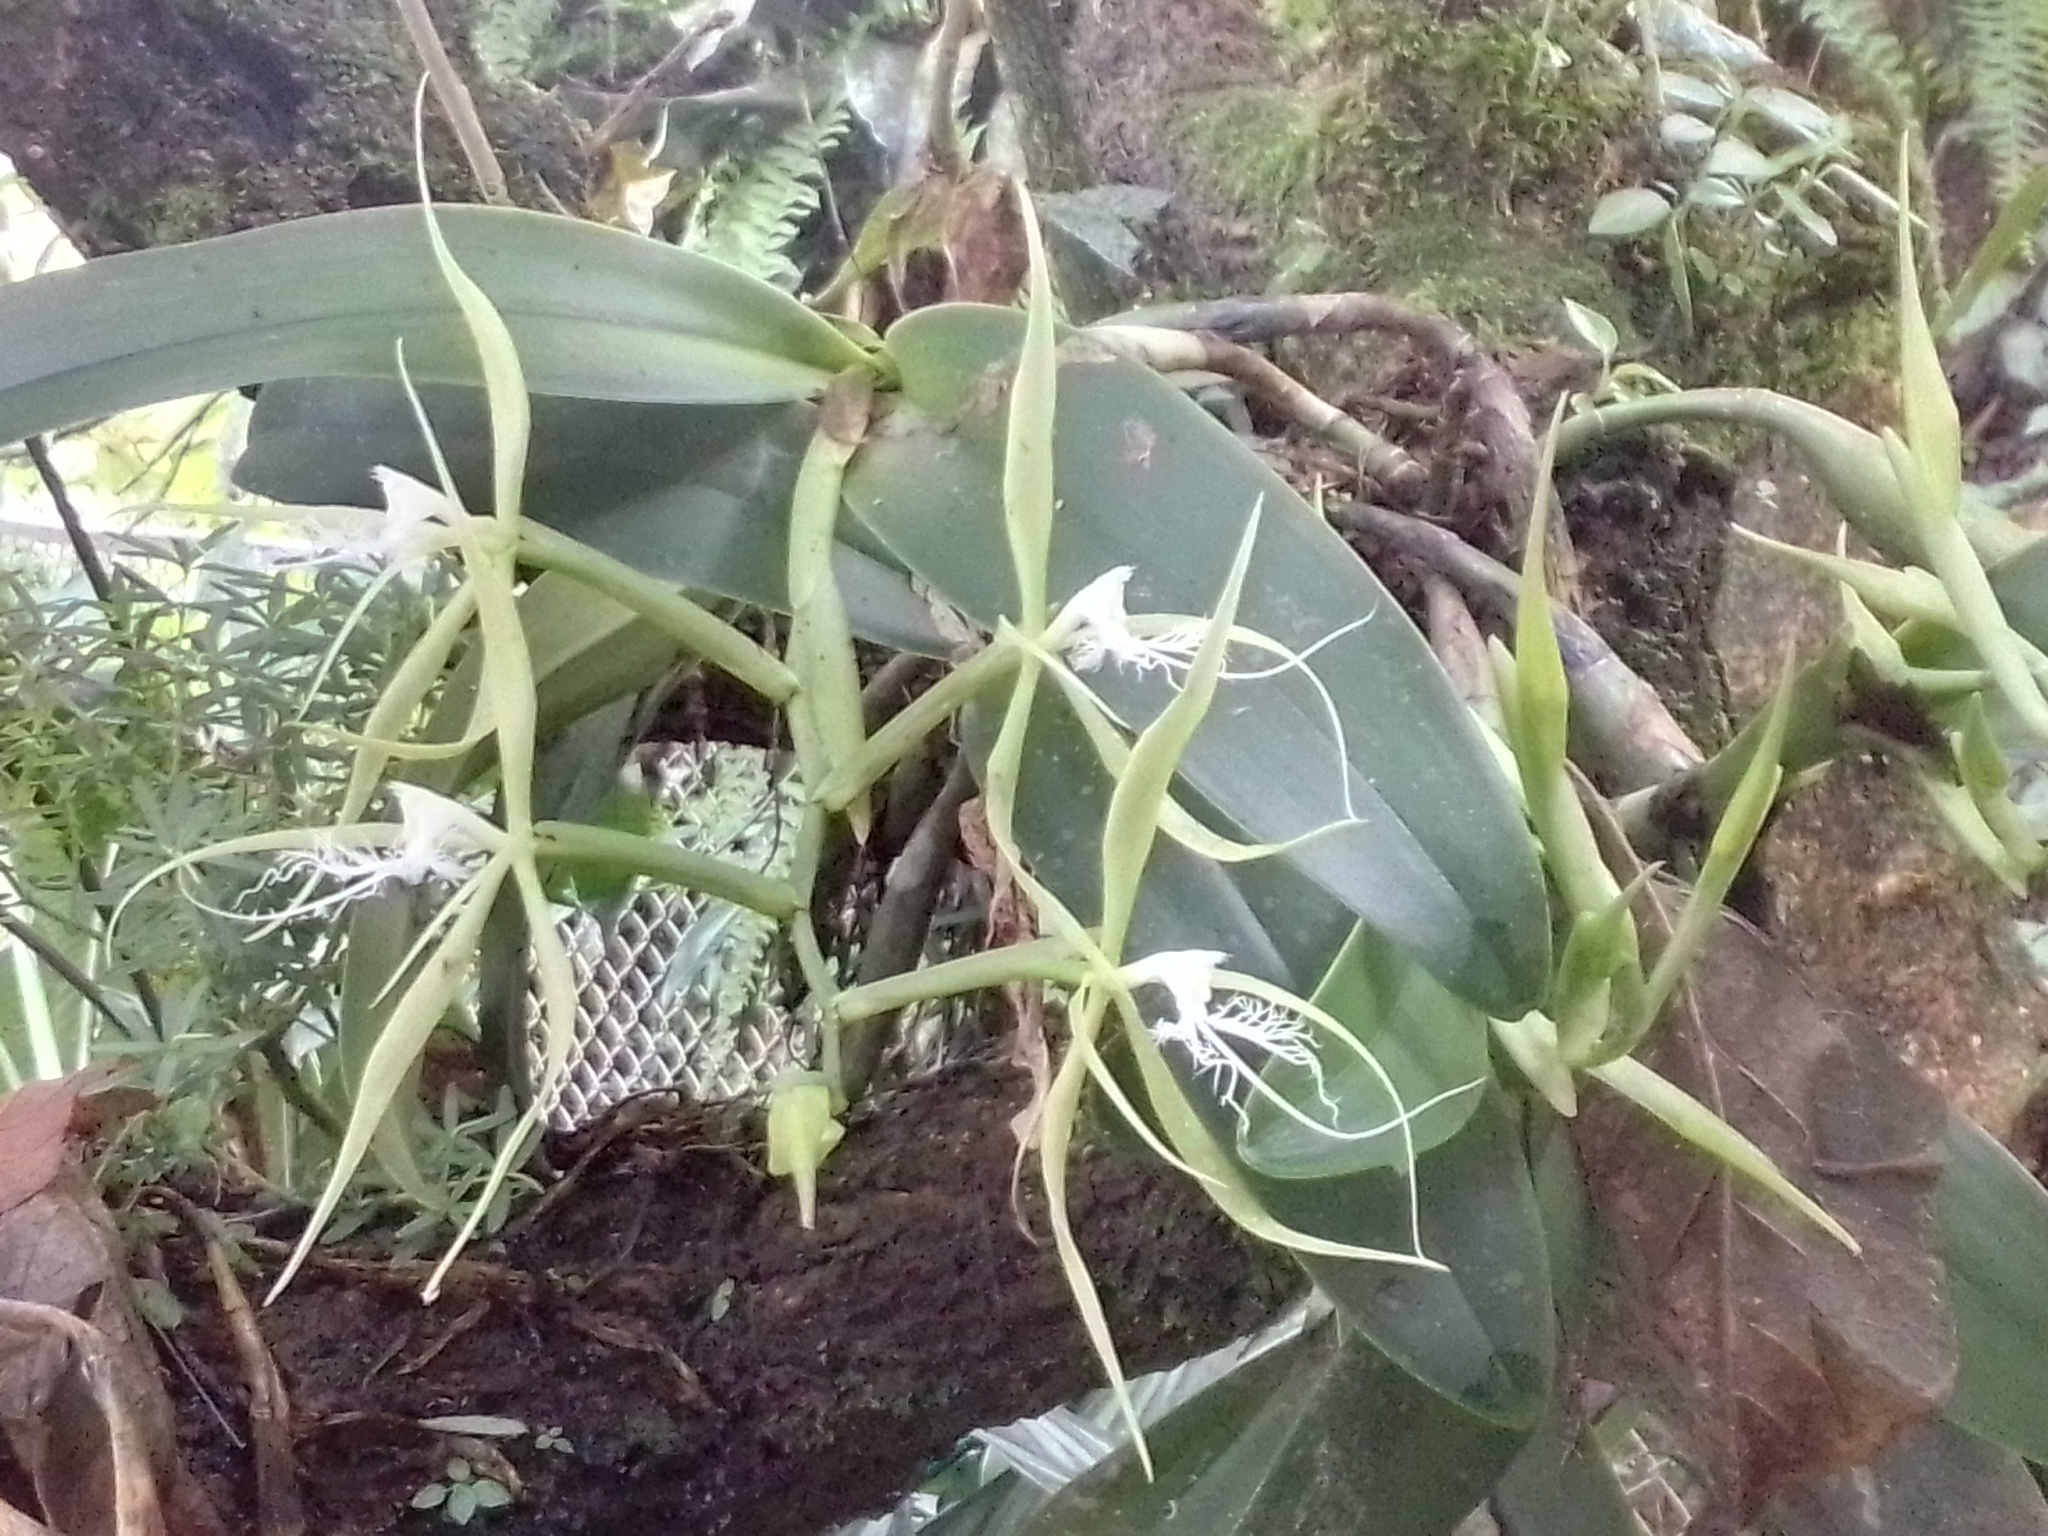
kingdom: Plantae
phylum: Tracheophyta
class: Liliopsida
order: Asparagales
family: Orchidaceae
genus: Epidendrum
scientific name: Epidendrum ciliare
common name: Eyelash orchid
